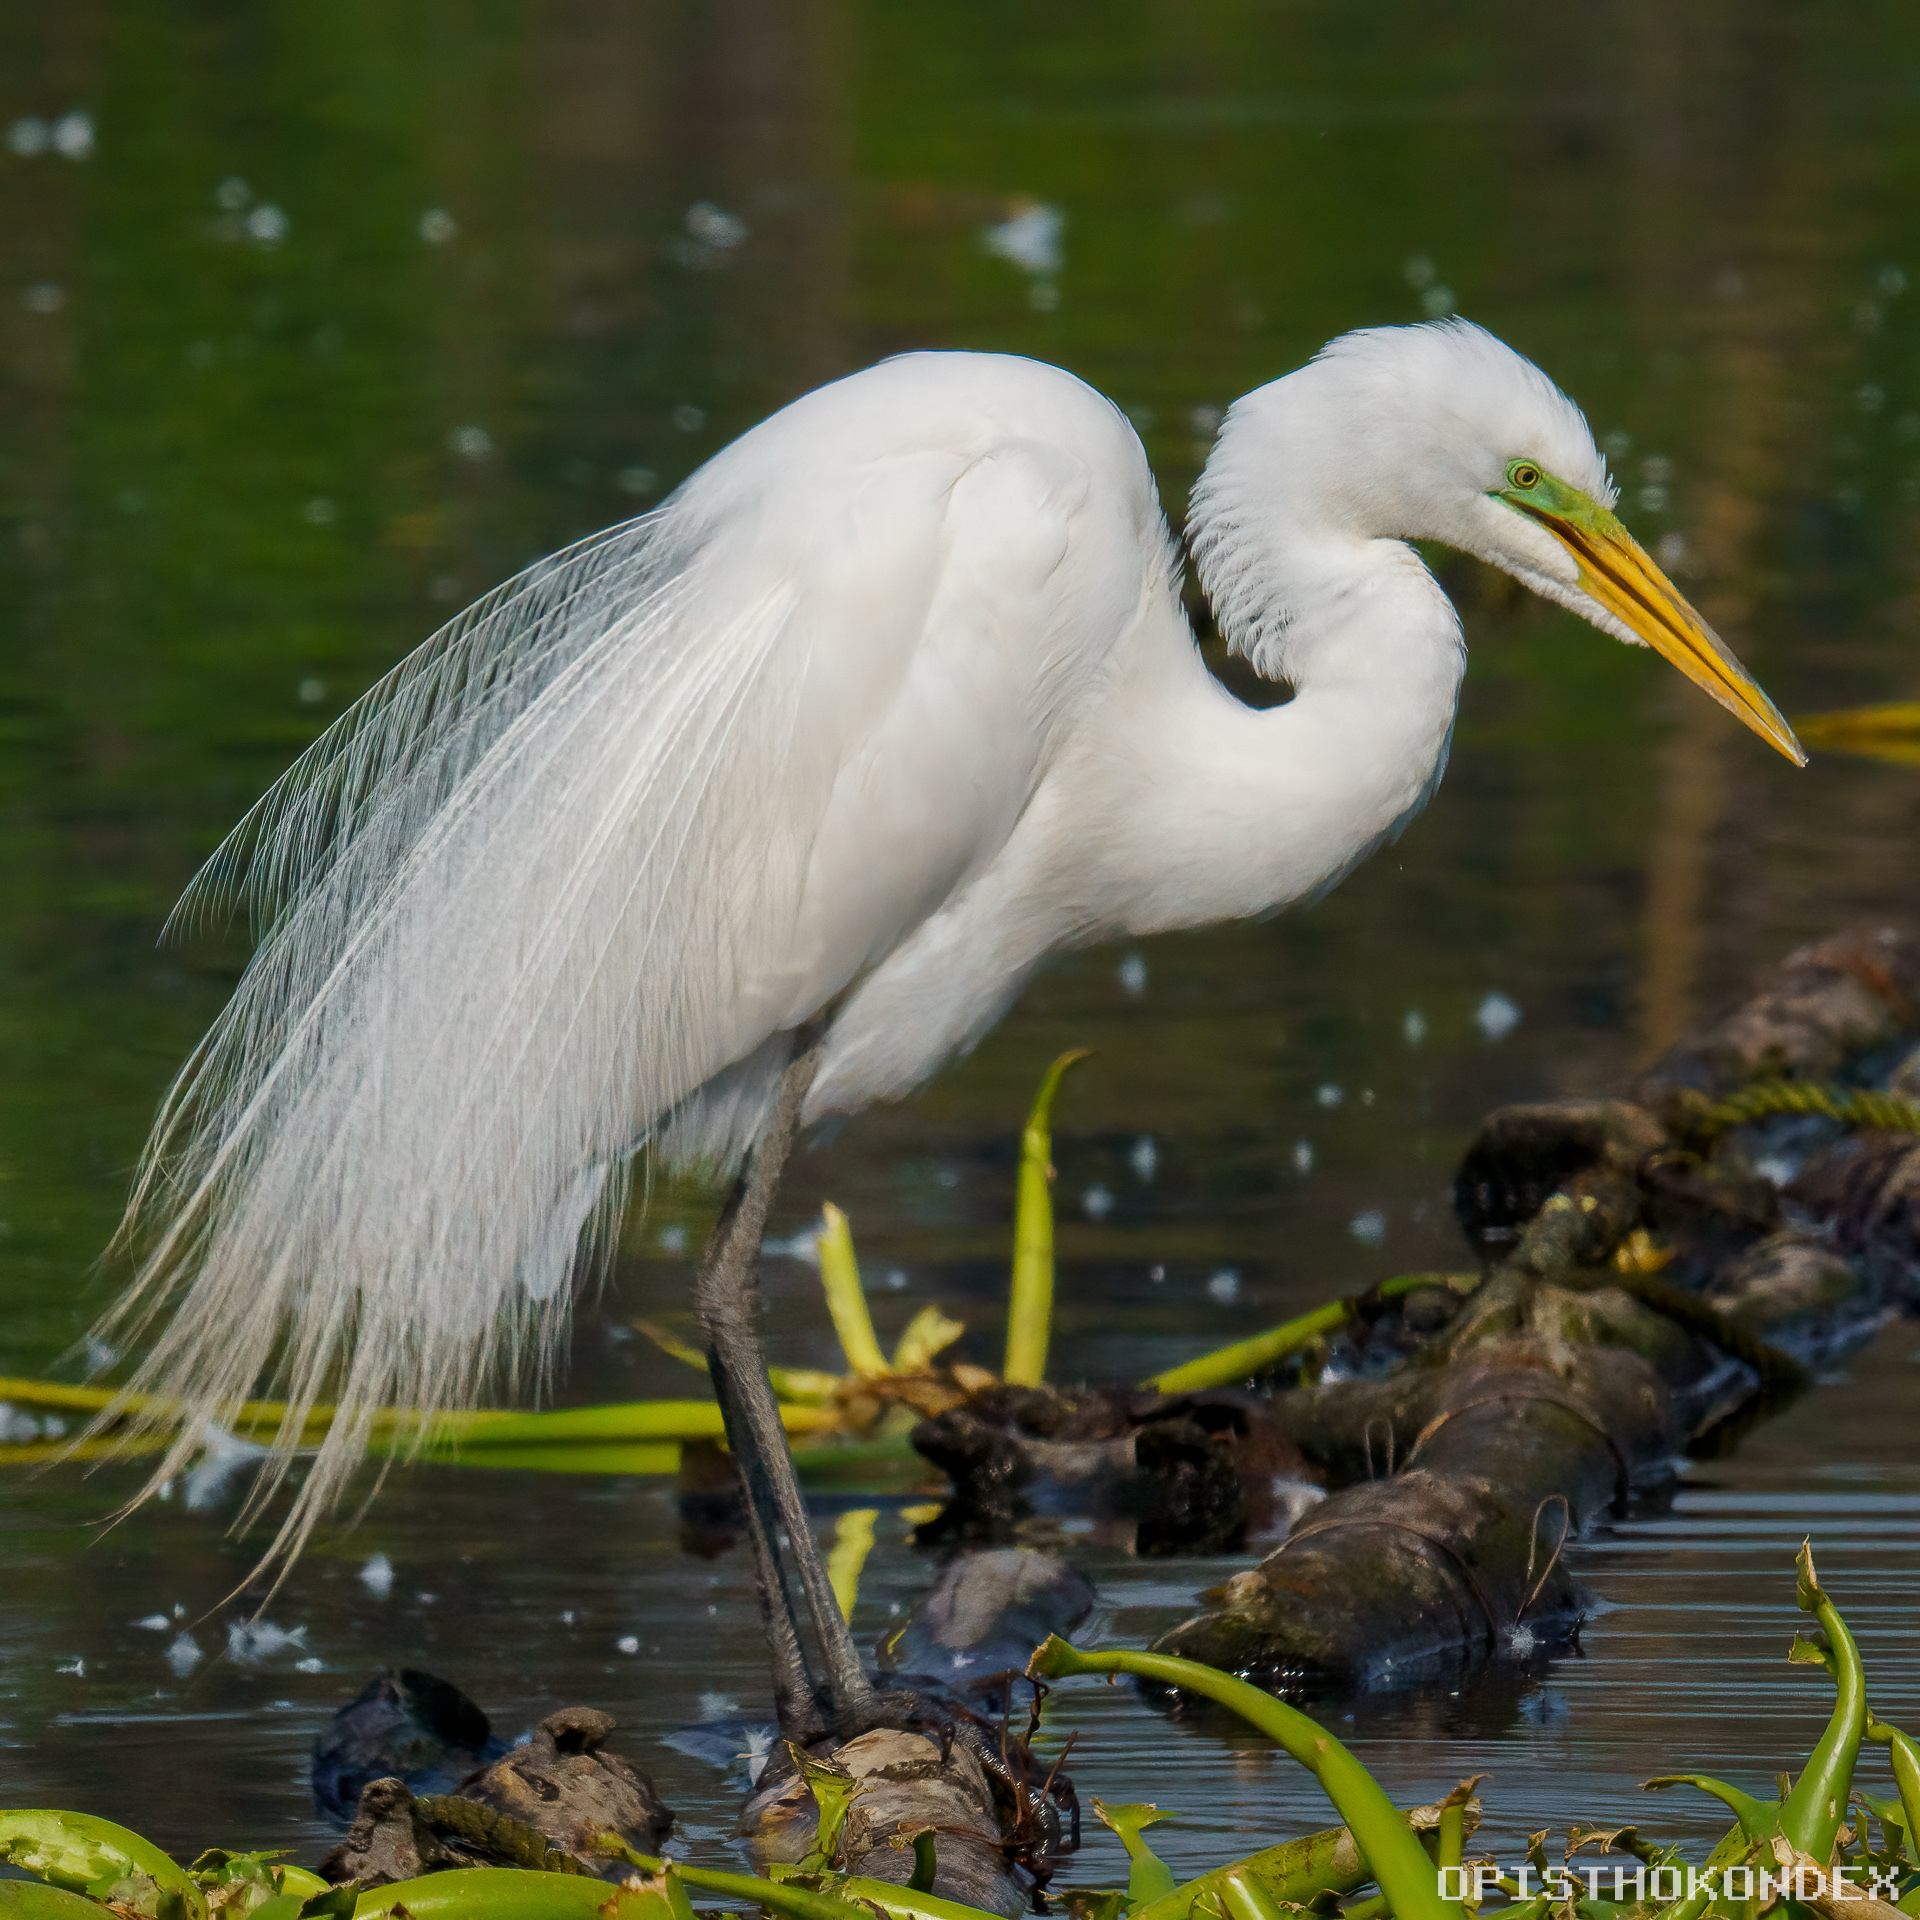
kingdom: Animalia
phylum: Chordata
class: Aves
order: Pelecaniformes
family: Ardeidae
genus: Ardea
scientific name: Ardea alba
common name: Great egret
